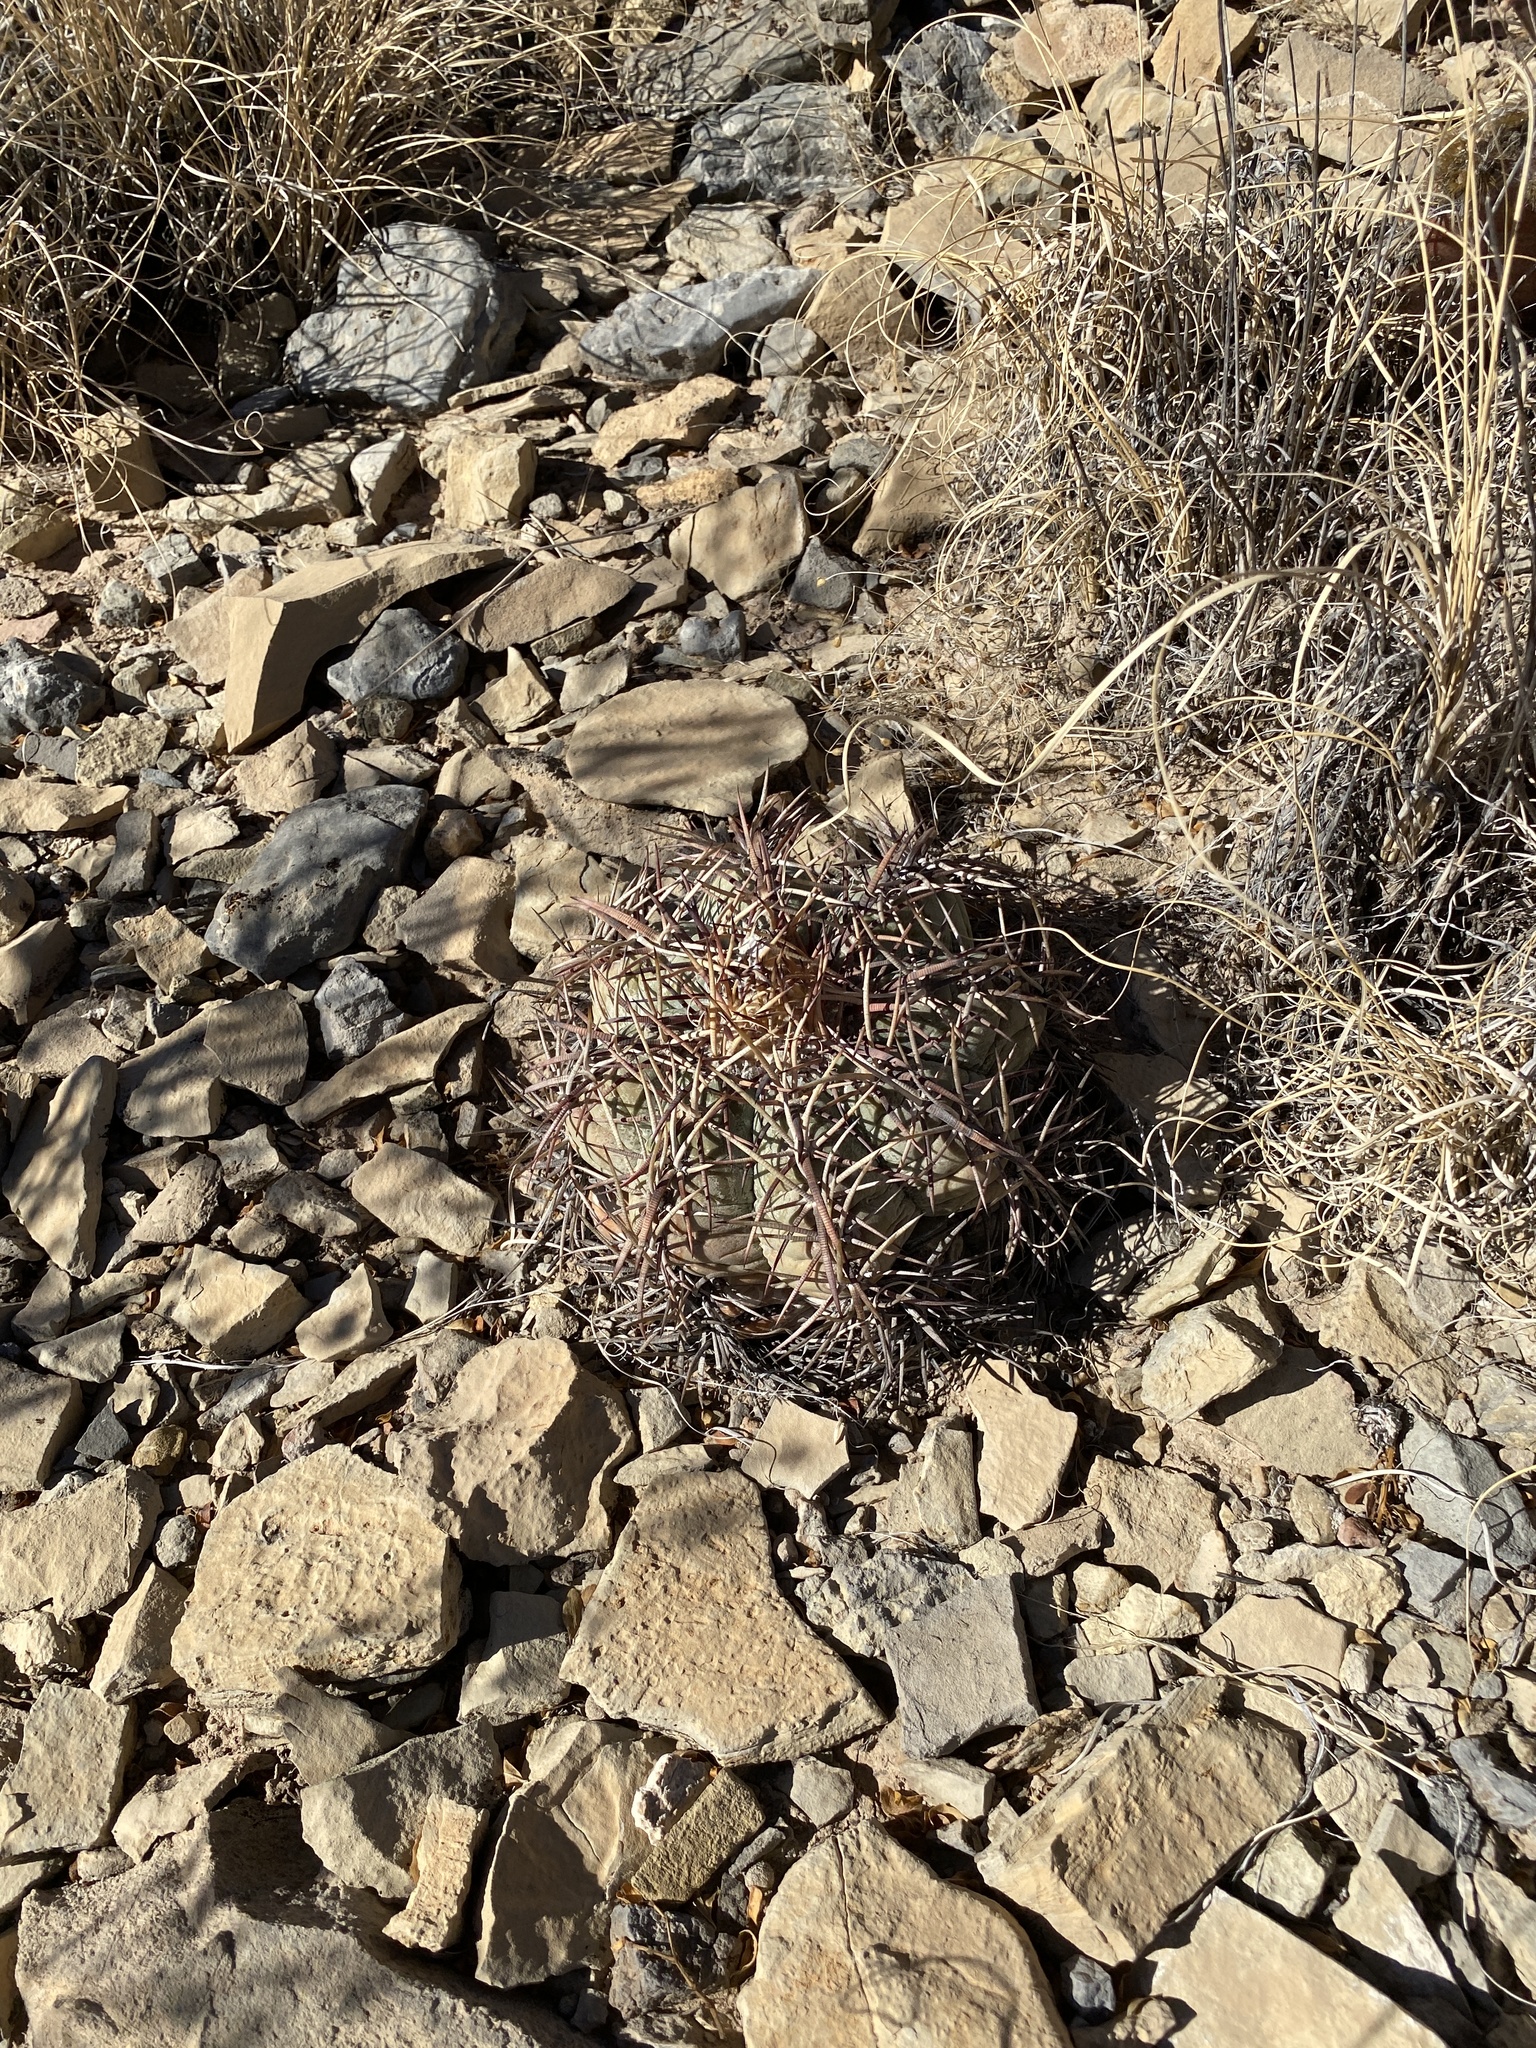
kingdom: Plantae
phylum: Tracheophyta
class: Magnoliopsida
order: Caryophyllales
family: Cactaceae
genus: Echinocactus
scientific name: Echinocactus horizonthalonius
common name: Devilshead
